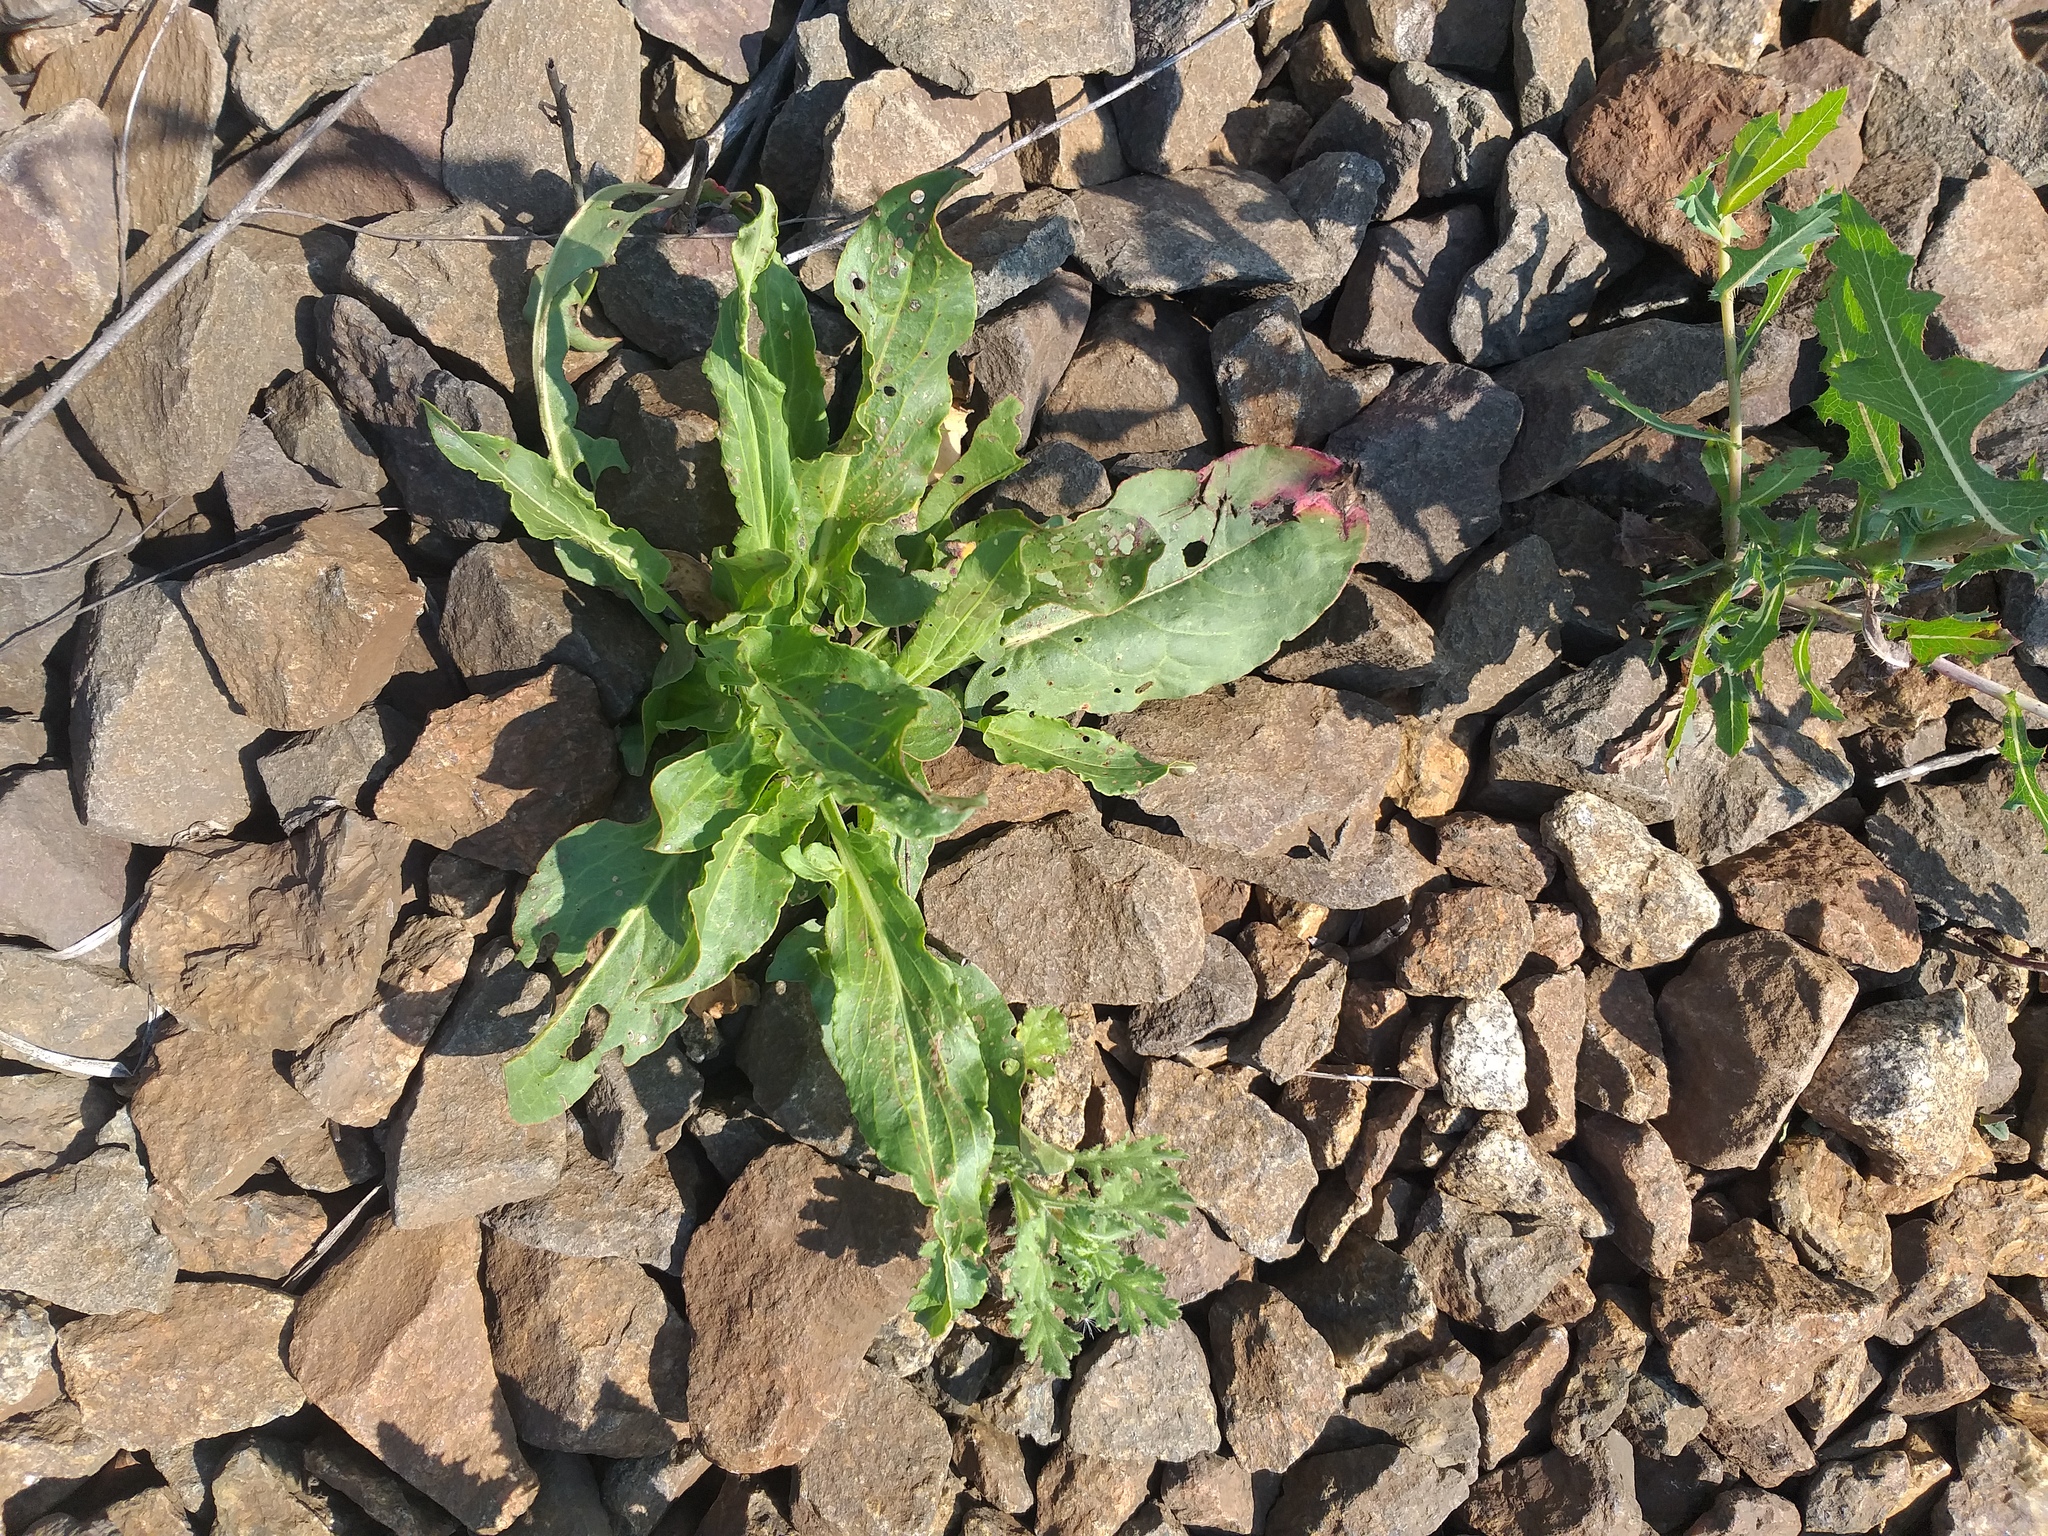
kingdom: Plantae
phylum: Tracheophyta
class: Magnoliopsida
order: Caryophyllales
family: Polygonaceae
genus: Rumex
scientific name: Rumex acetosa
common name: Garden sorrel
